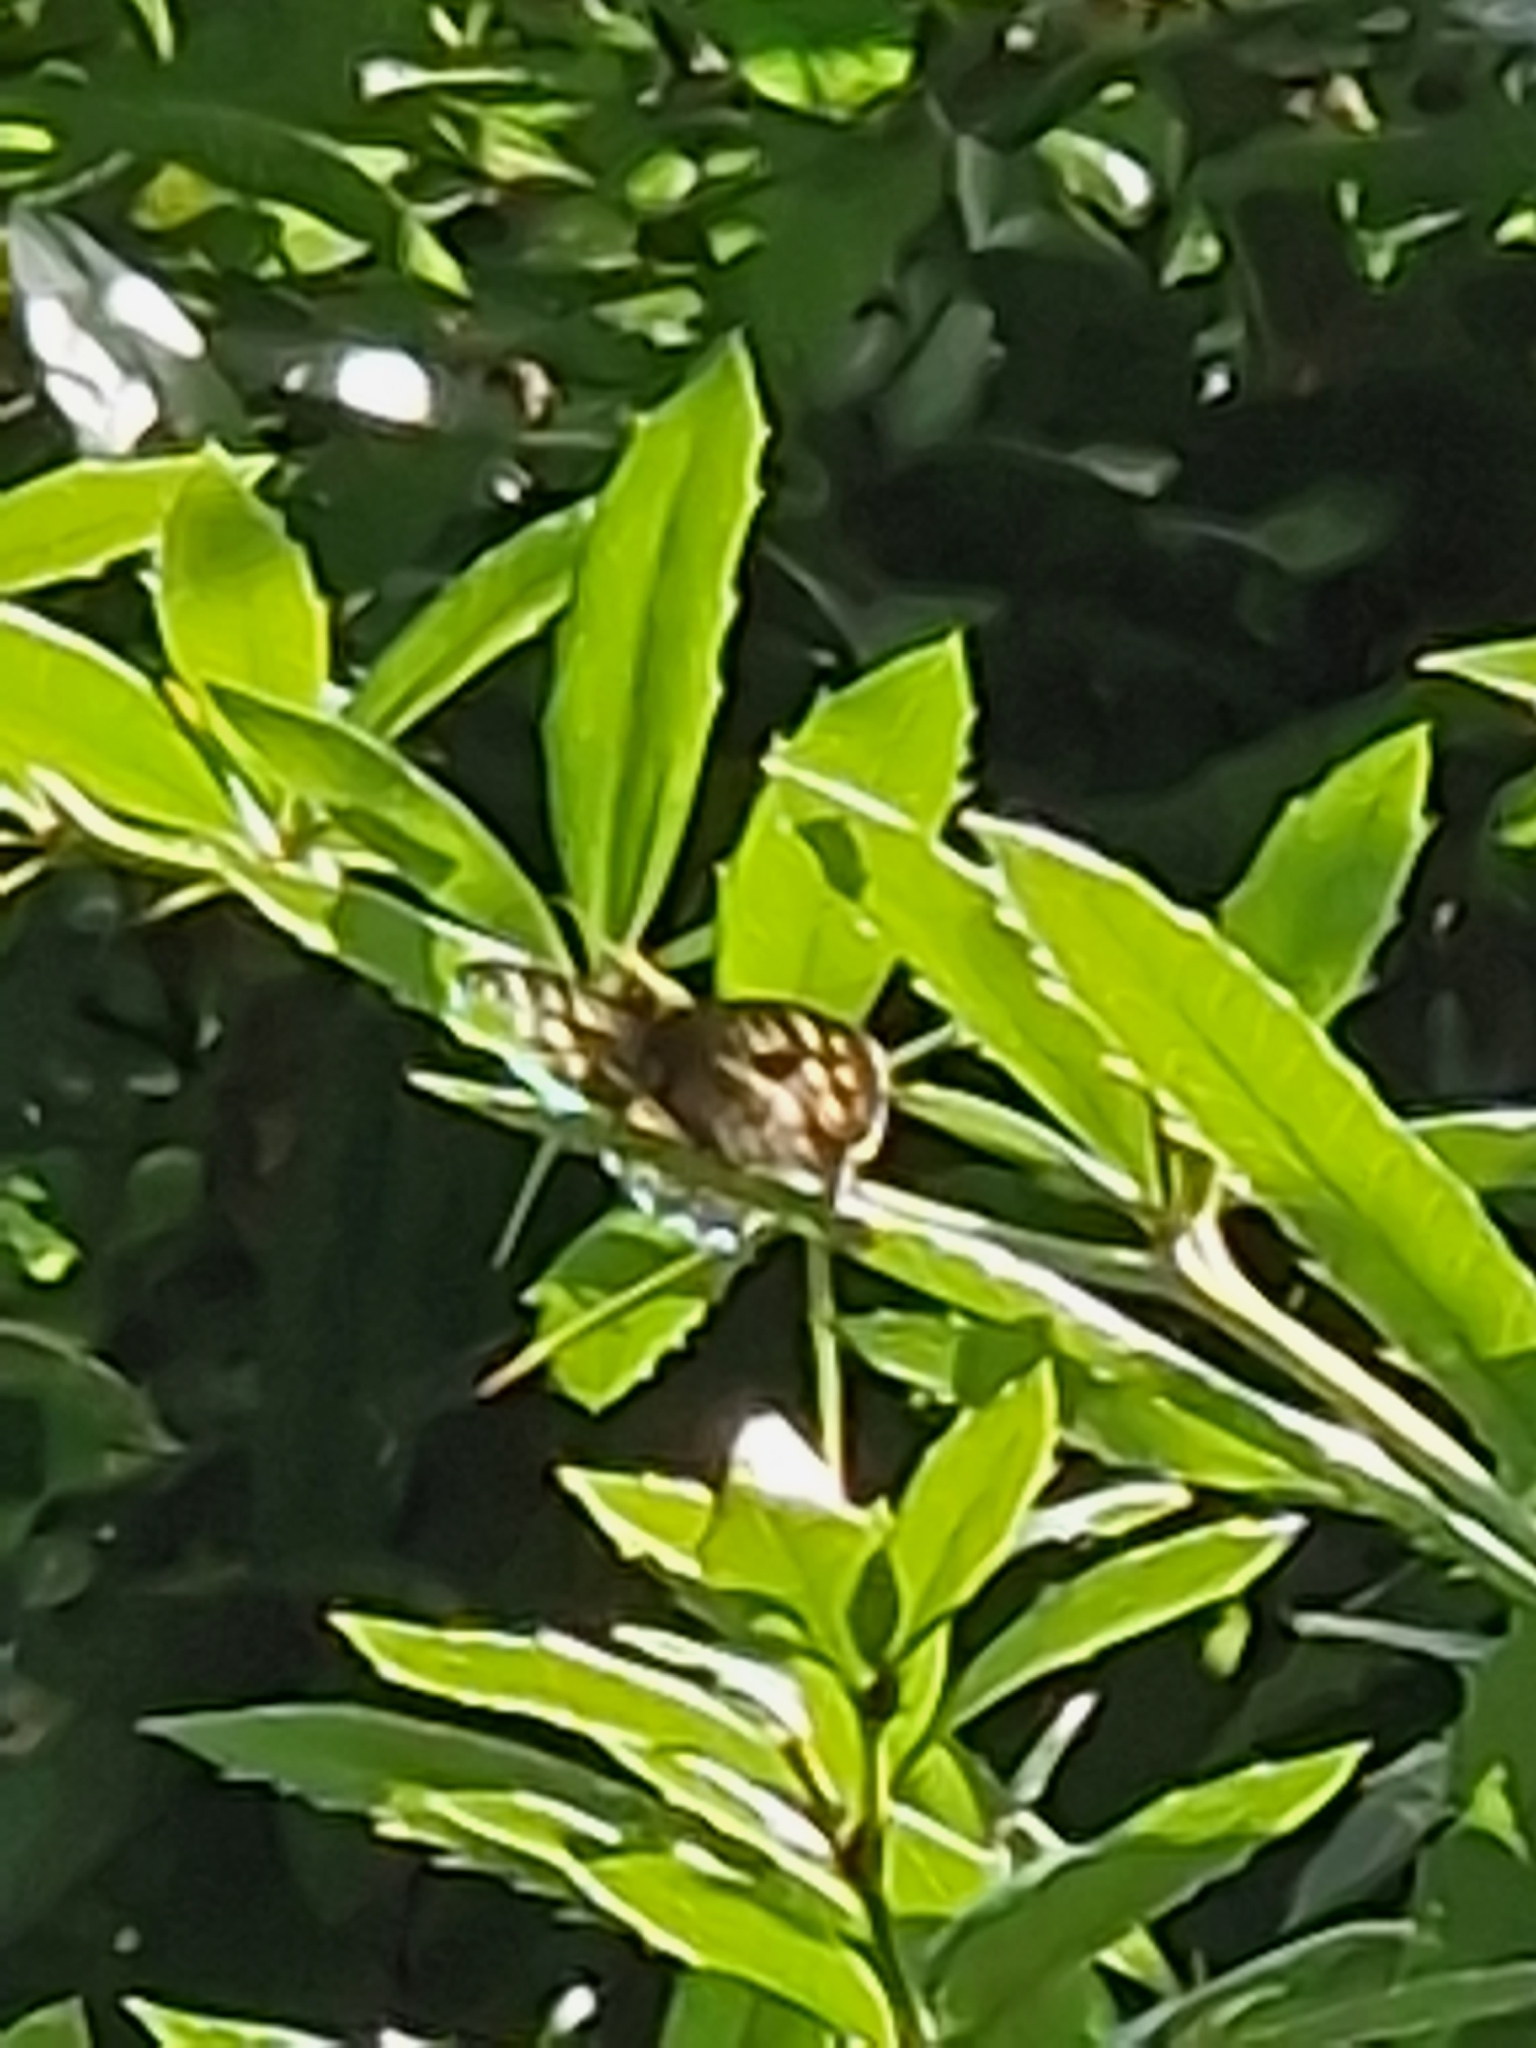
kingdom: Animalia
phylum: Arthropoda
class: Insecta
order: Lepidoptera
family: Nymphalidae
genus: Pararge
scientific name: Pararge aegeria
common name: Speckled wood
